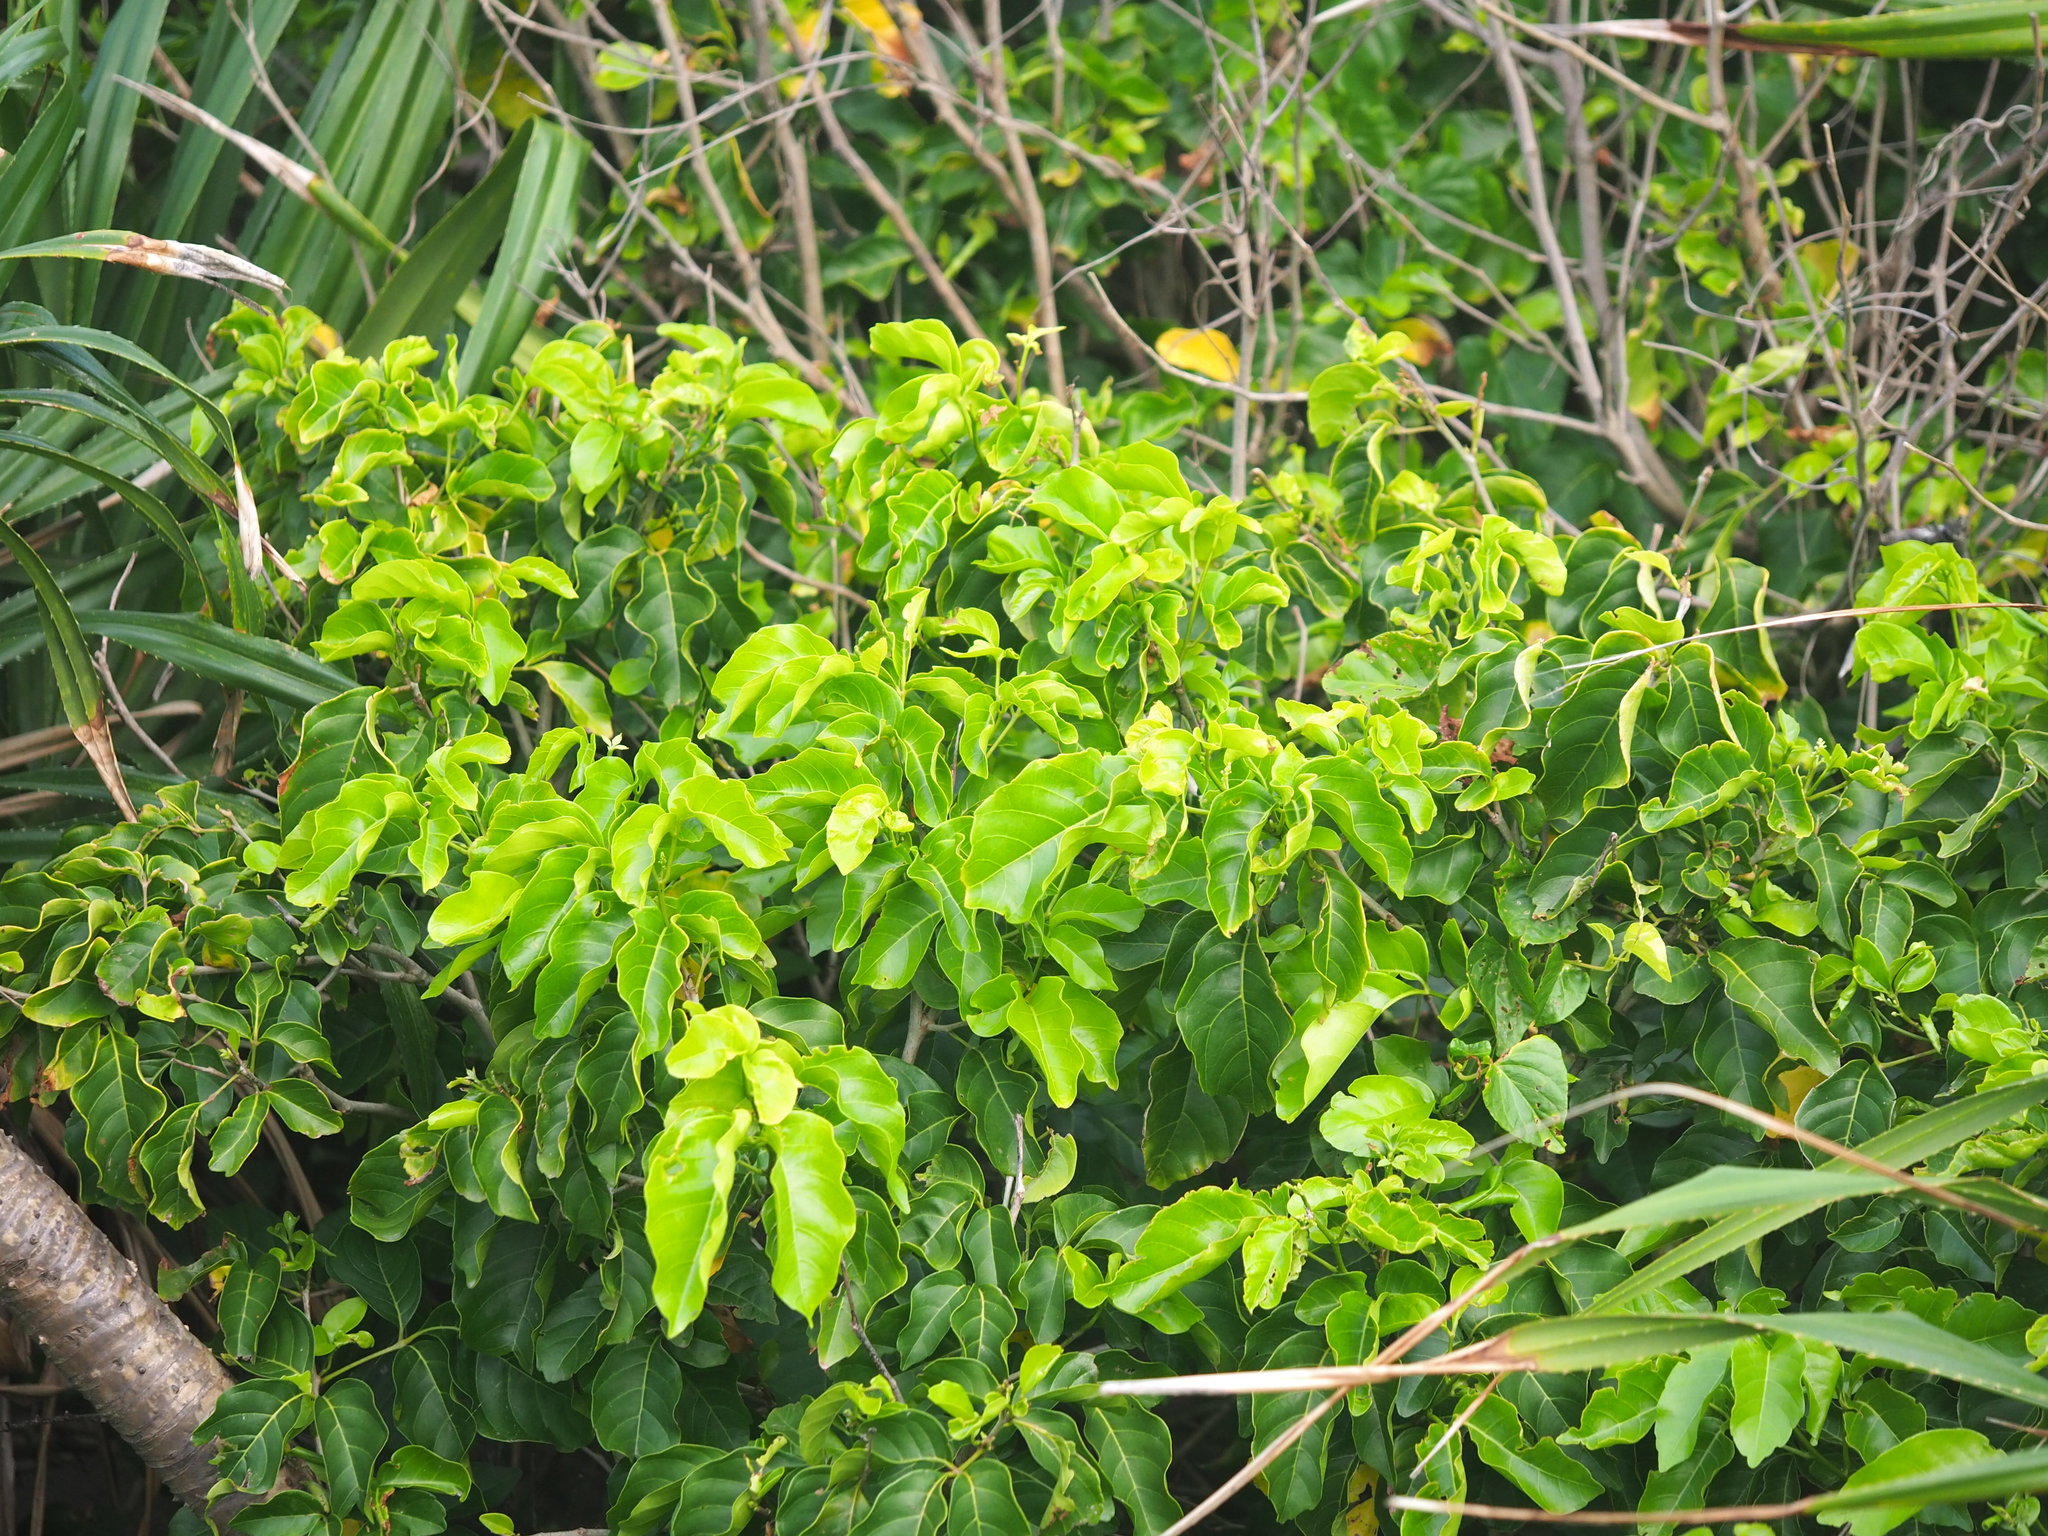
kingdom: Plantae
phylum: Tracheophyta
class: Magnoliopsida
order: Lamiales
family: Lamiaceae
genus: Premna
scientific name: Premna serratifolia
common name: Bastard guelder
